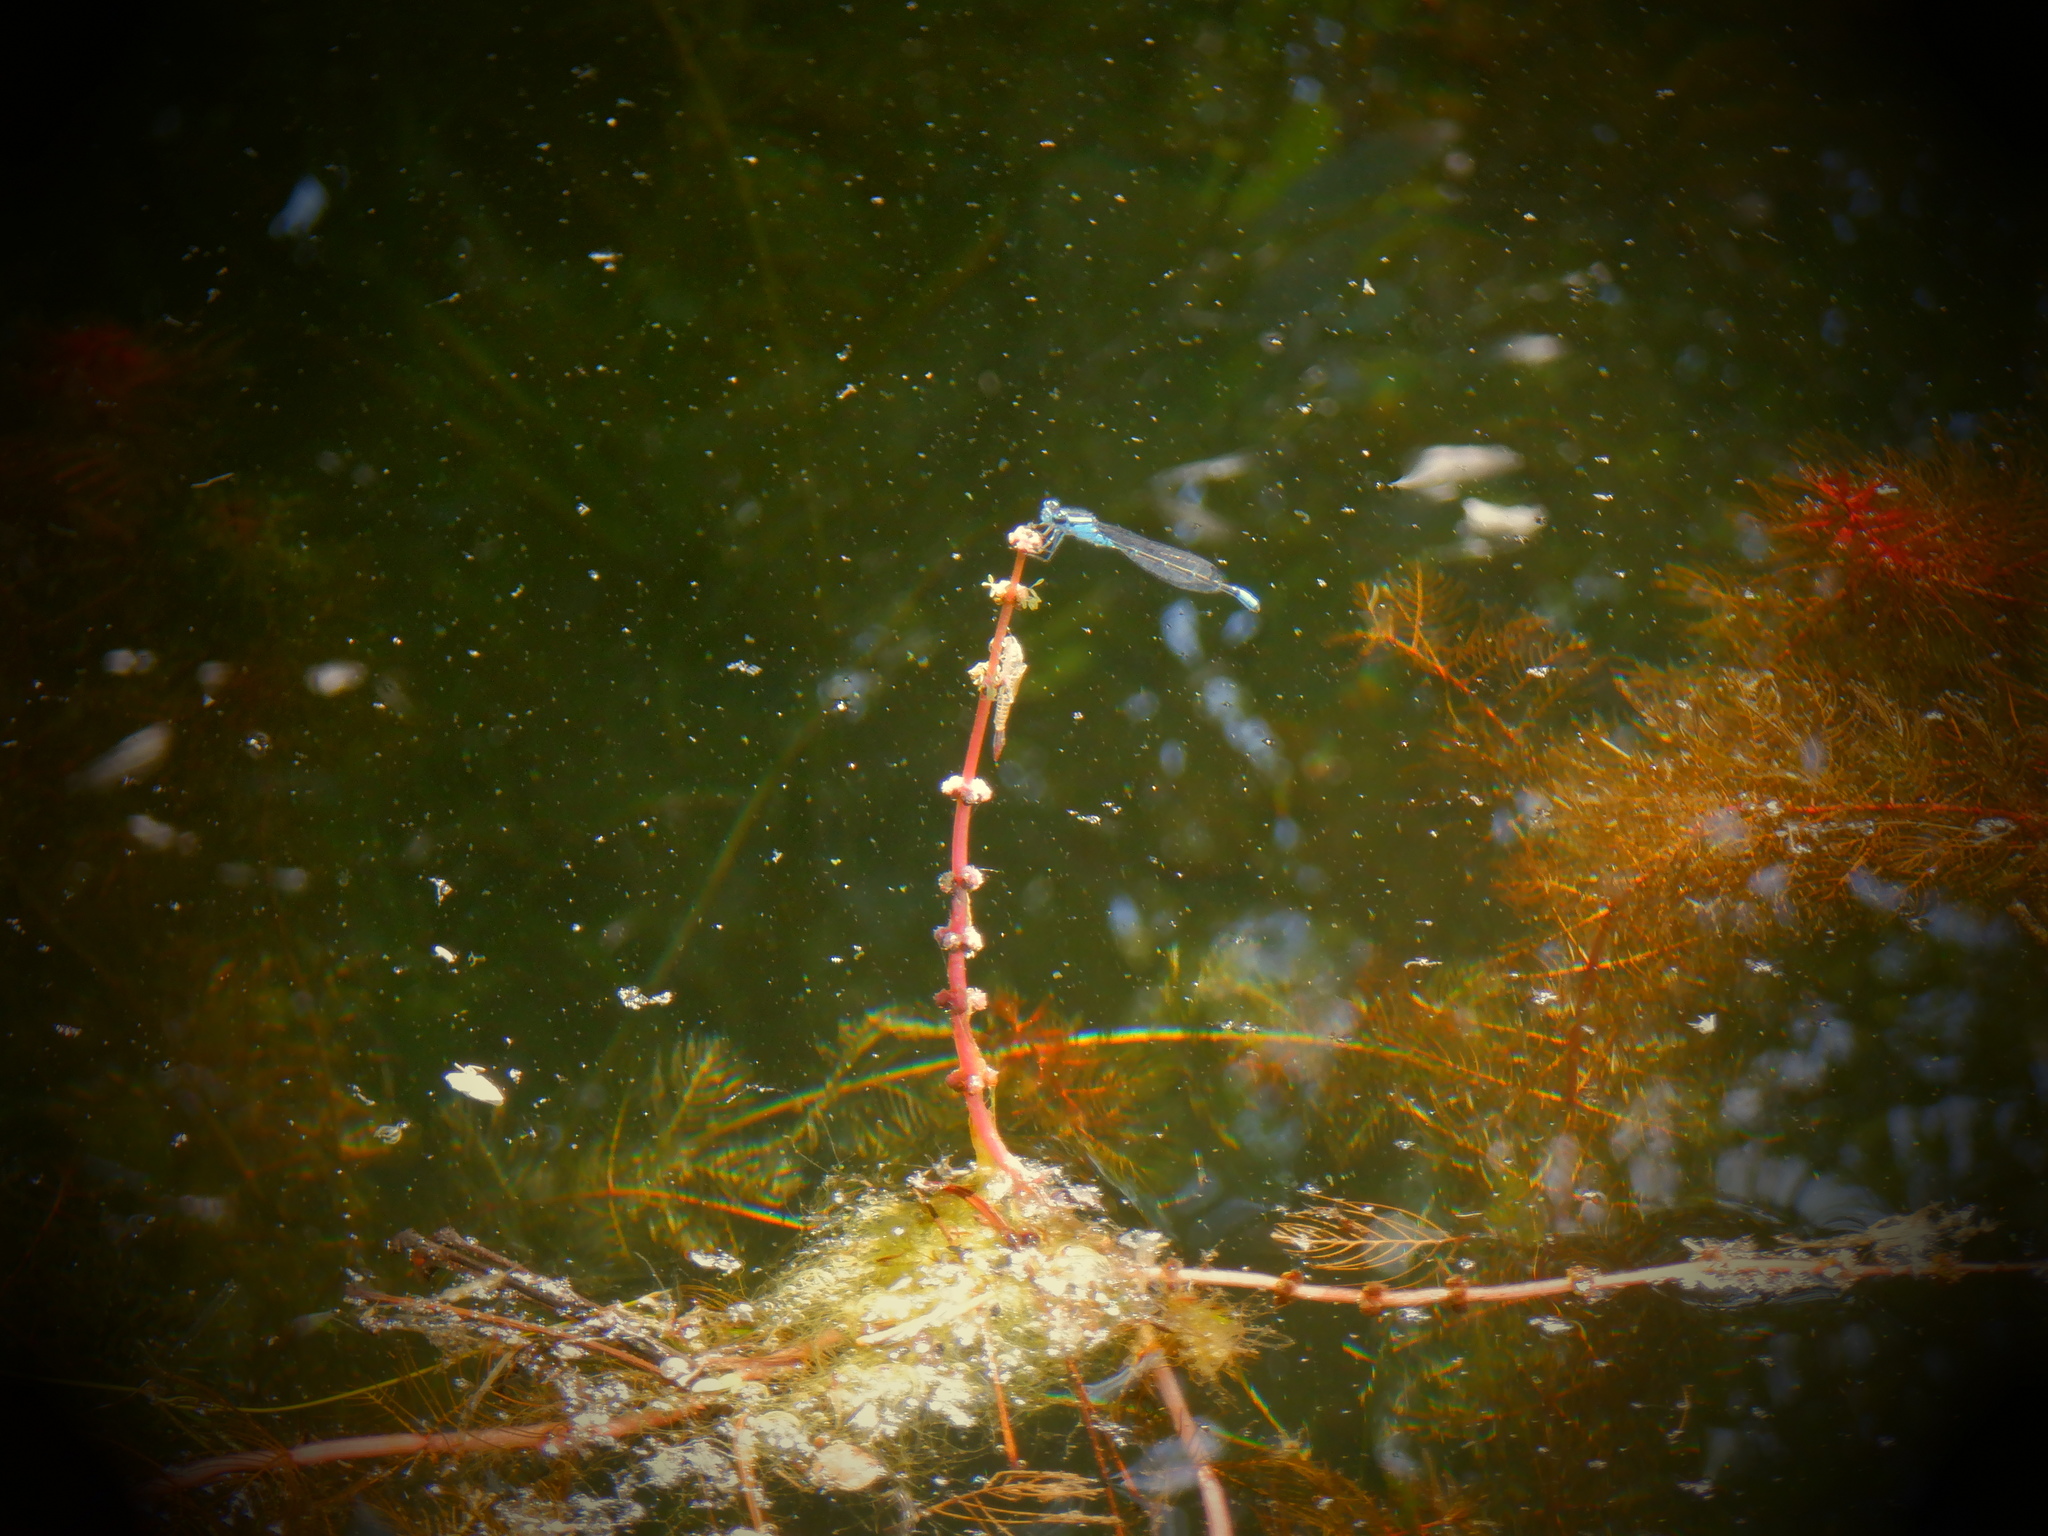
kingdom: Animalia
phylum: Arthropoda
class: Insecta
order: Odonata
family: Coenagrionidae
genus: Enallagma
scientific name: Enallagma geminatum
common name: Skimming bluet
